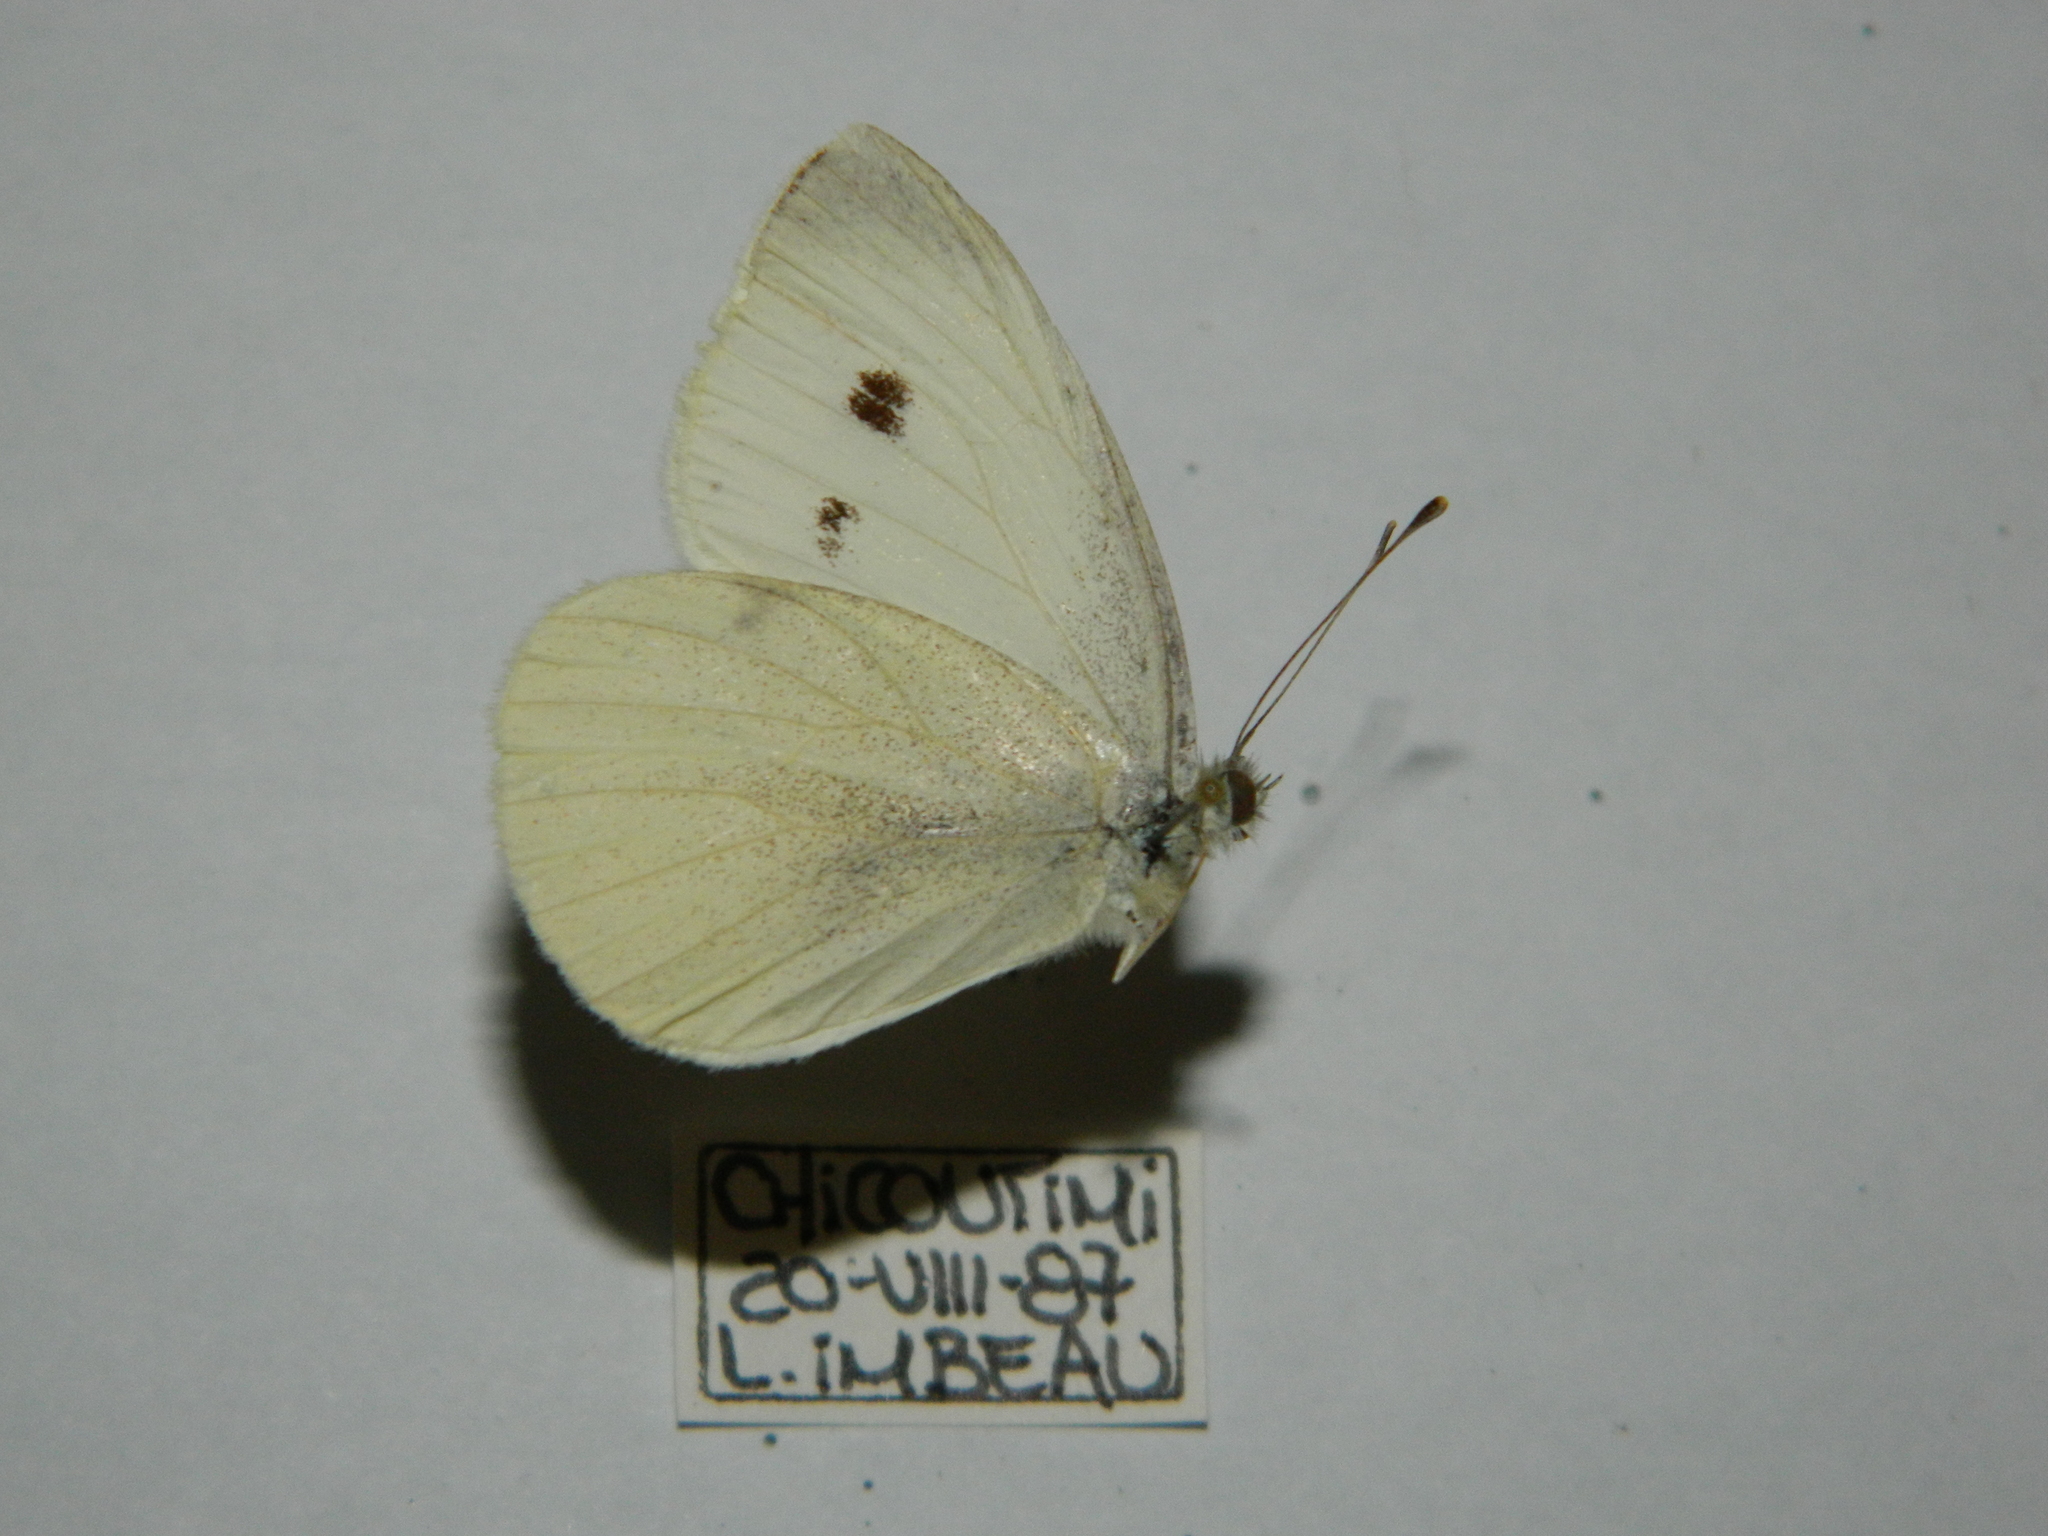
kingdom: Animalia
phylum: Arthropoda
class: Insecta
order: Lepidoptera
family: Pieridae
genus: Pieris
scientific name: Pieris rapae
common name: Small white
